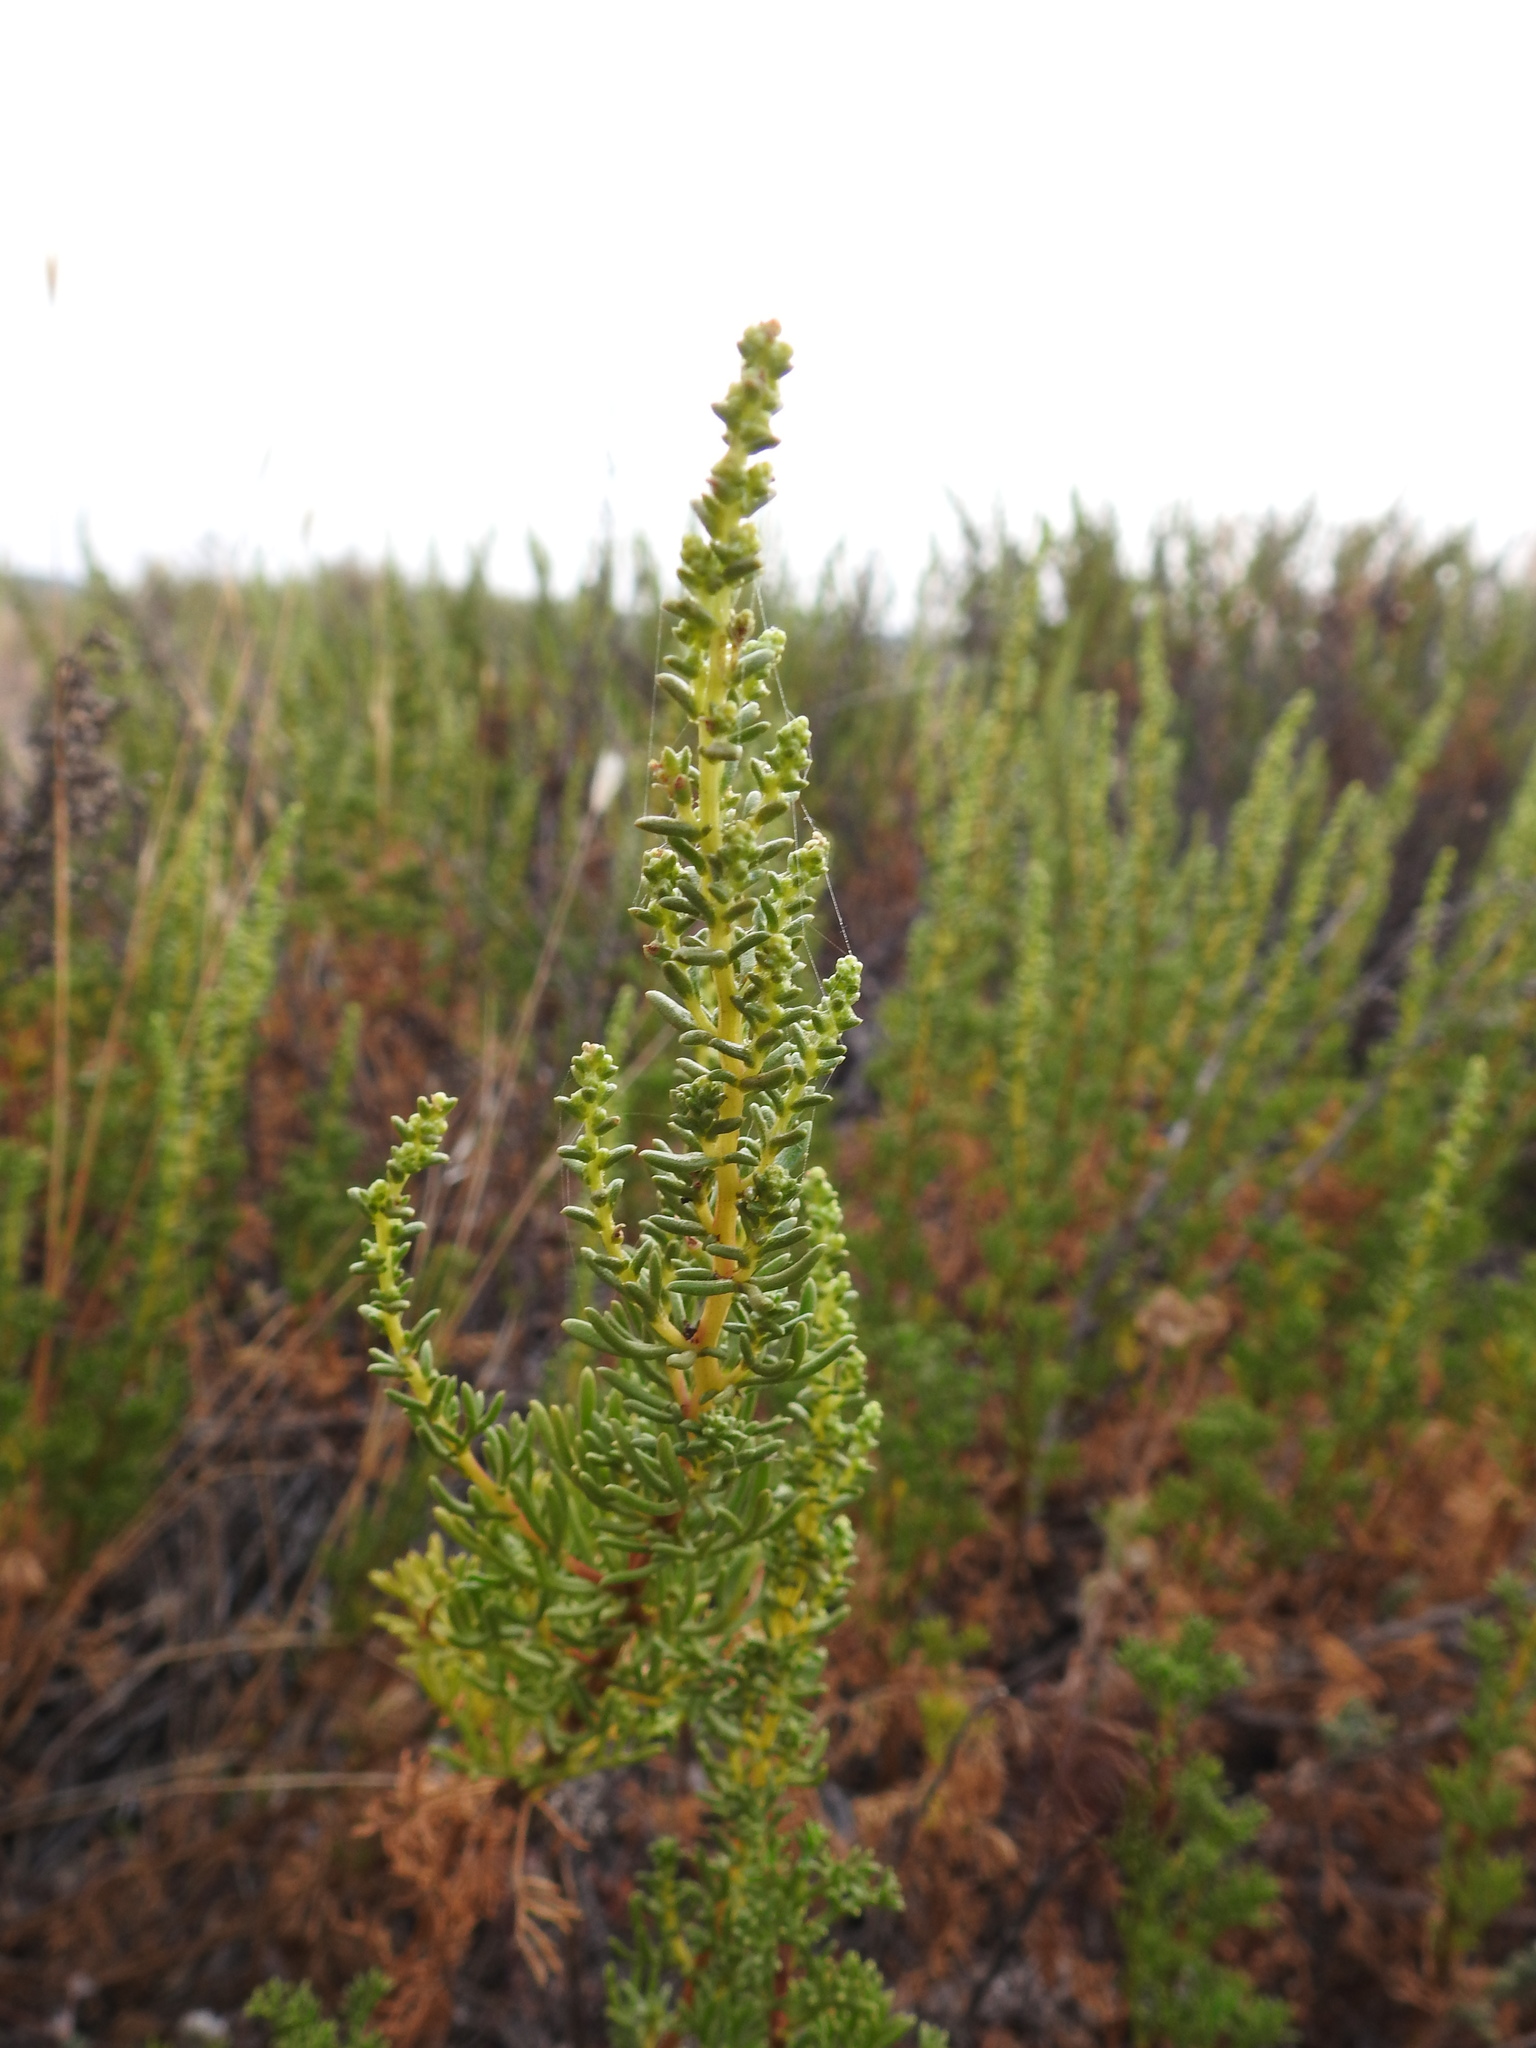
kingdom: Plantae
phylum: Tracheophyta
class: Magnoliopsida
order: Asterales
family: Asteraceae
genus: Artemisia
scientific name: Artemisia crithmifolia
